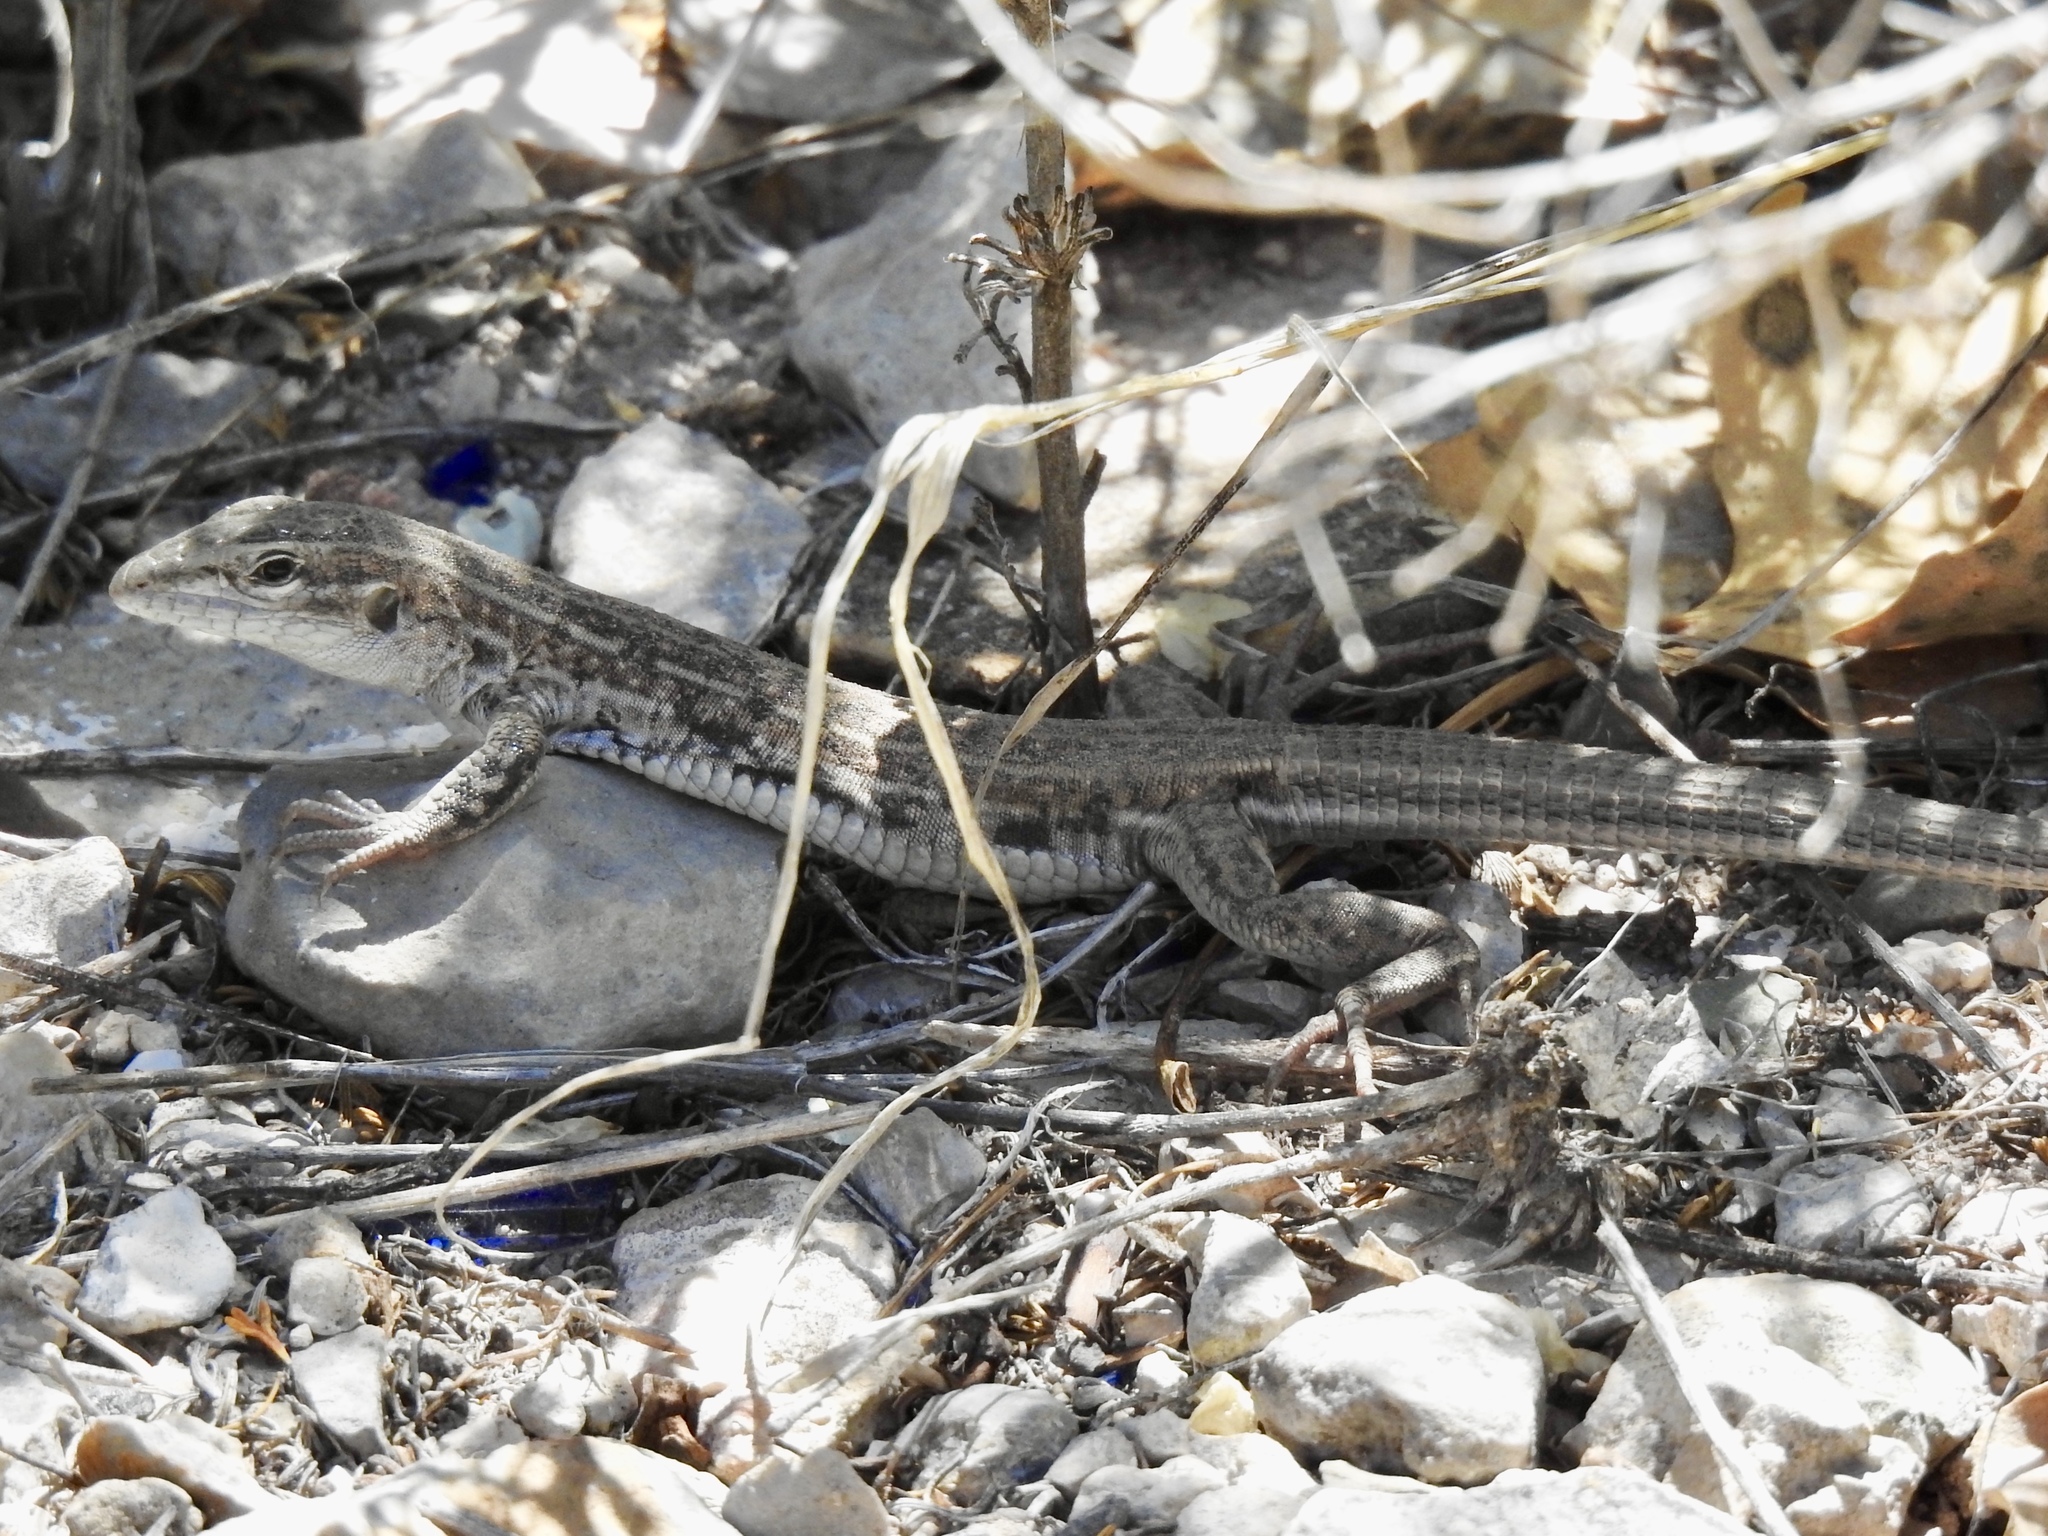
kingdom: Animalia
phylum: Chordata
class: Squamata
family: Teiidae
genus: Aspidoscelis
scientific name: Aspidoscelis exsanguis
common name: Chihuahuan spotted whiptail
